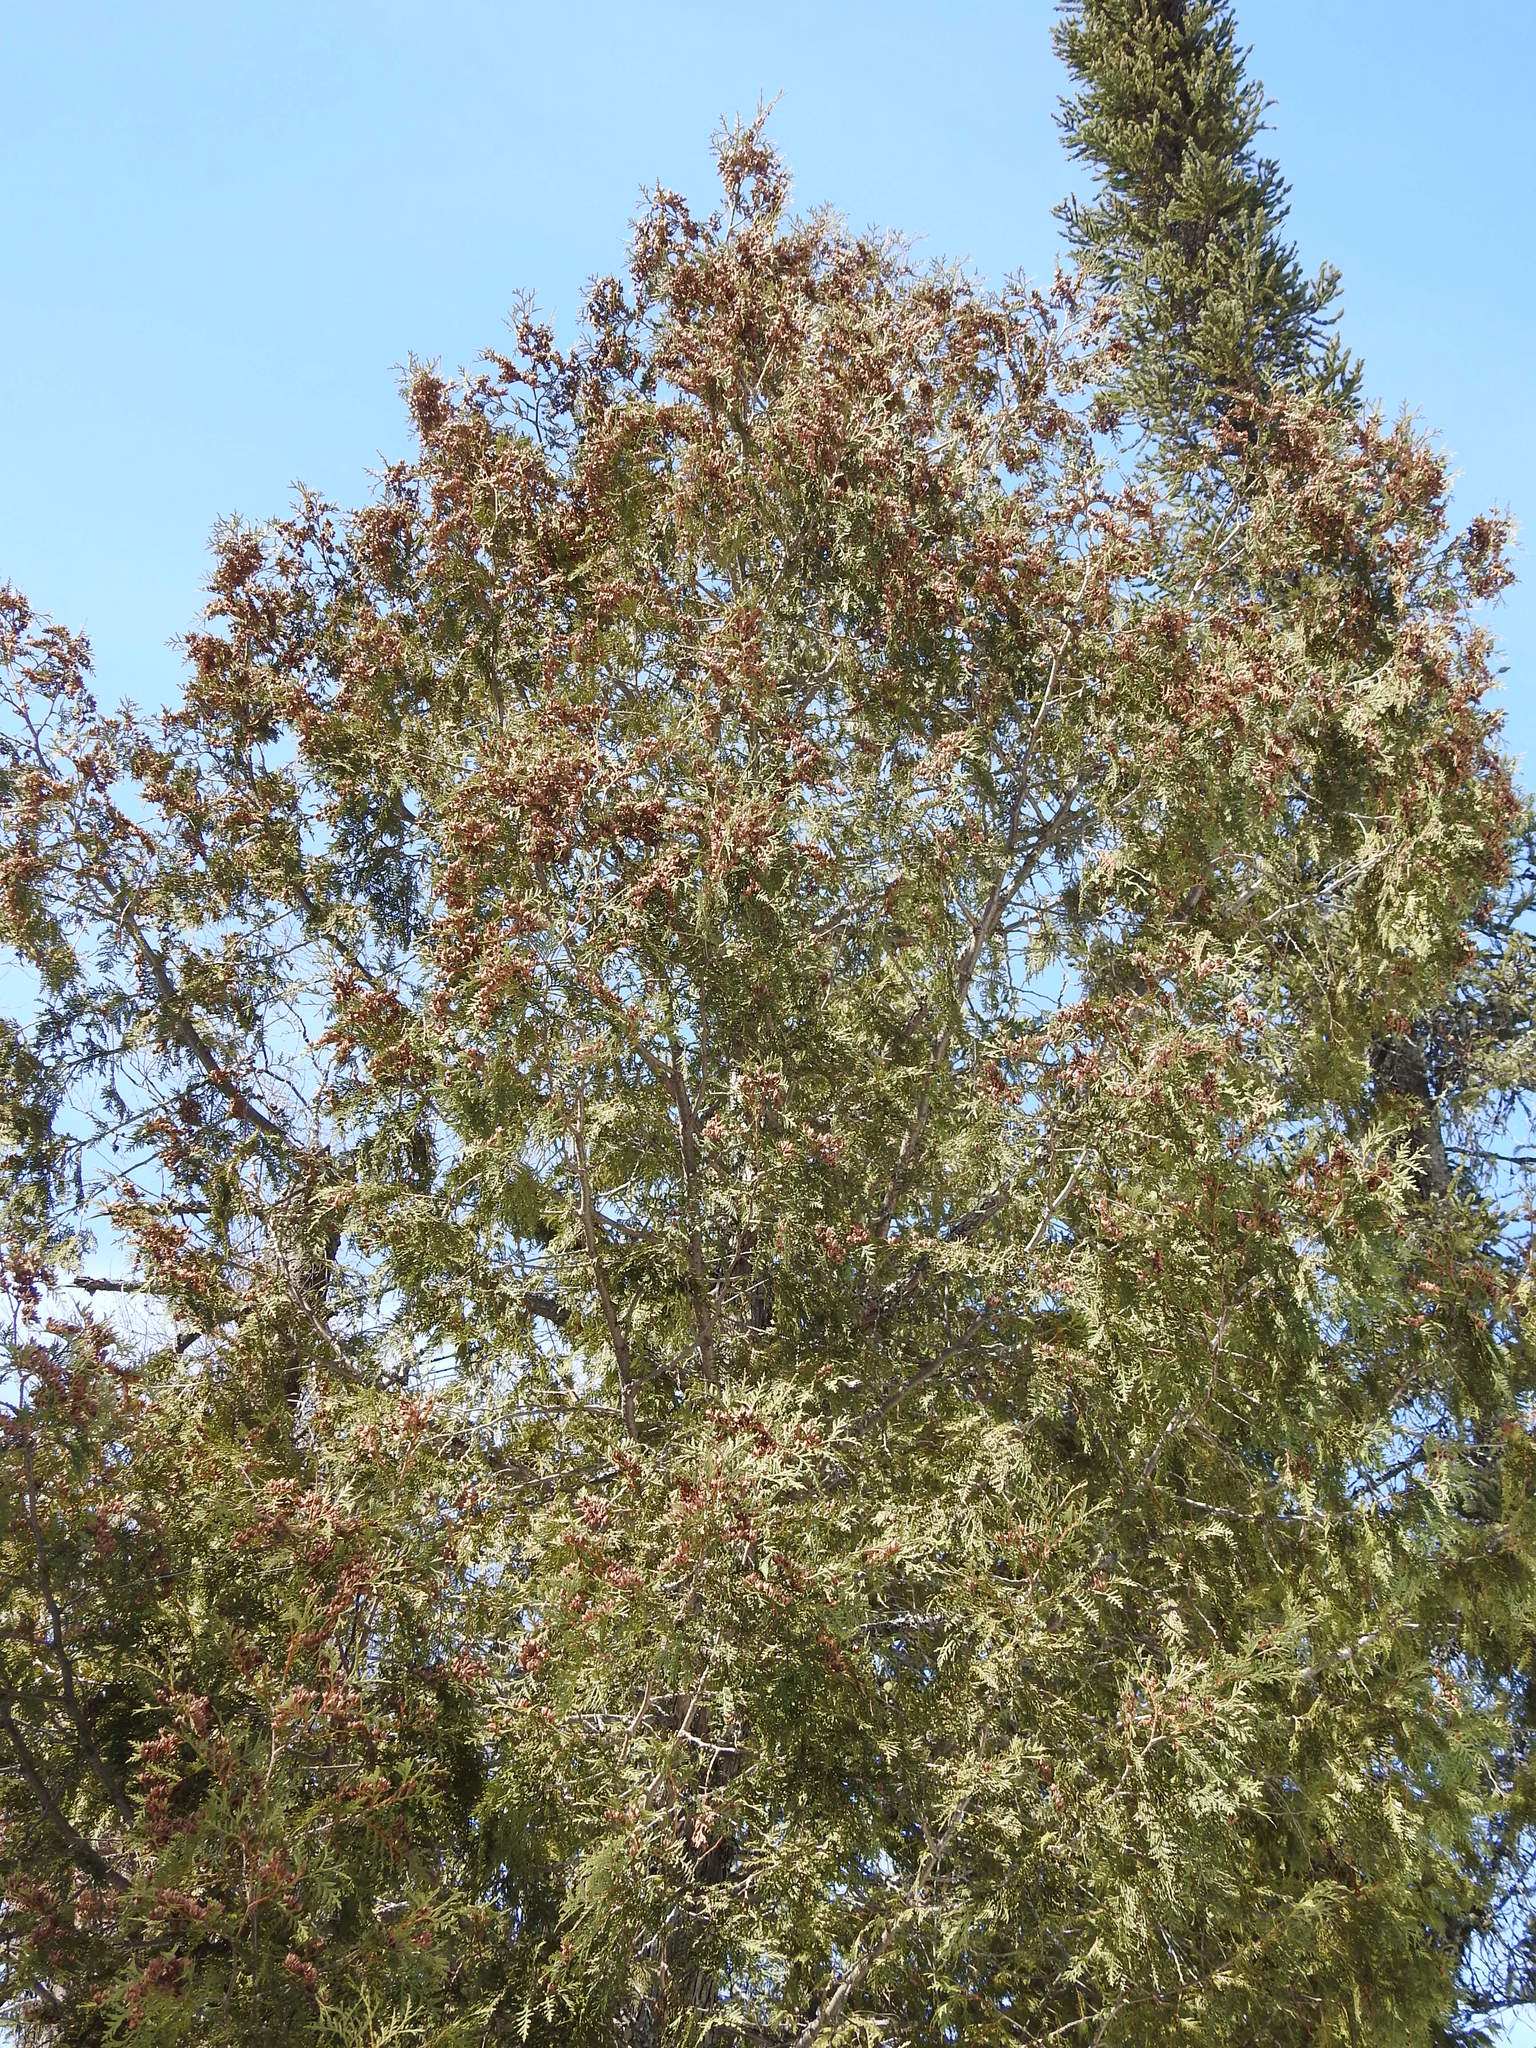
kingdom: Plantae
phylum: Tracheophyta
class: Pinopsida
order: Pinales
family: Cupressaceae
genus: Thuja
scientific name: Thuja occidentalis
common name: Northern white-cedar
